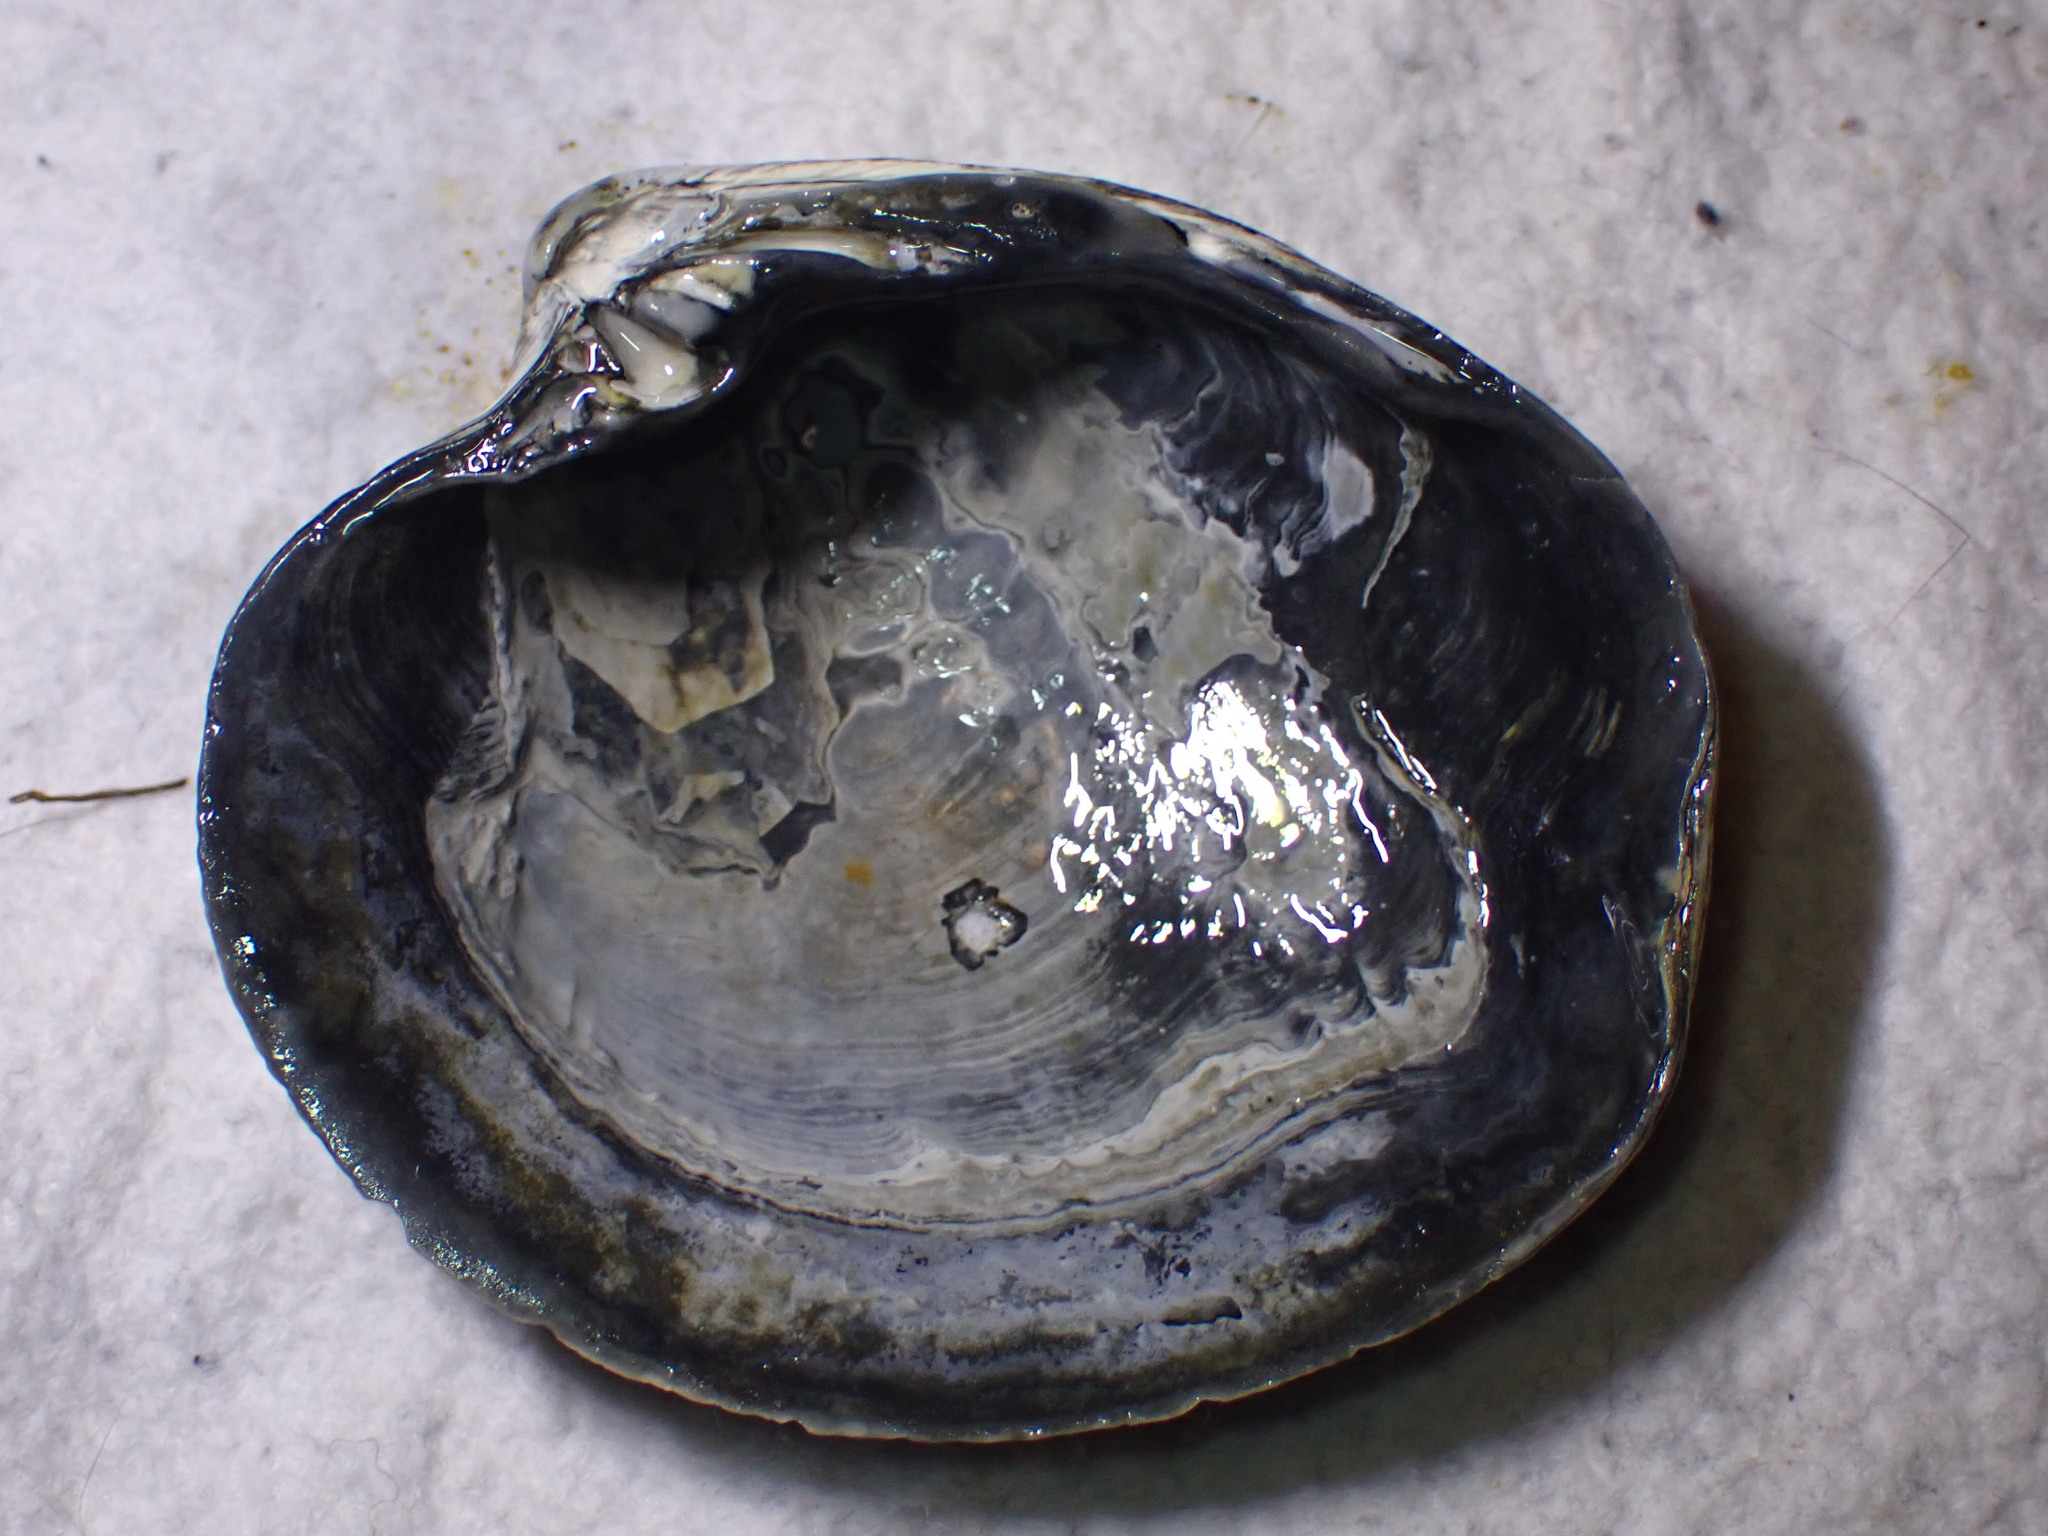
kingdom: Animalia
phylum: Mollusca
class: Bivalvia
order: Venerida
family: Arcticidae
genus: Arctica
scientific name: Arctica islandica
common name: Icelandic cyprine
